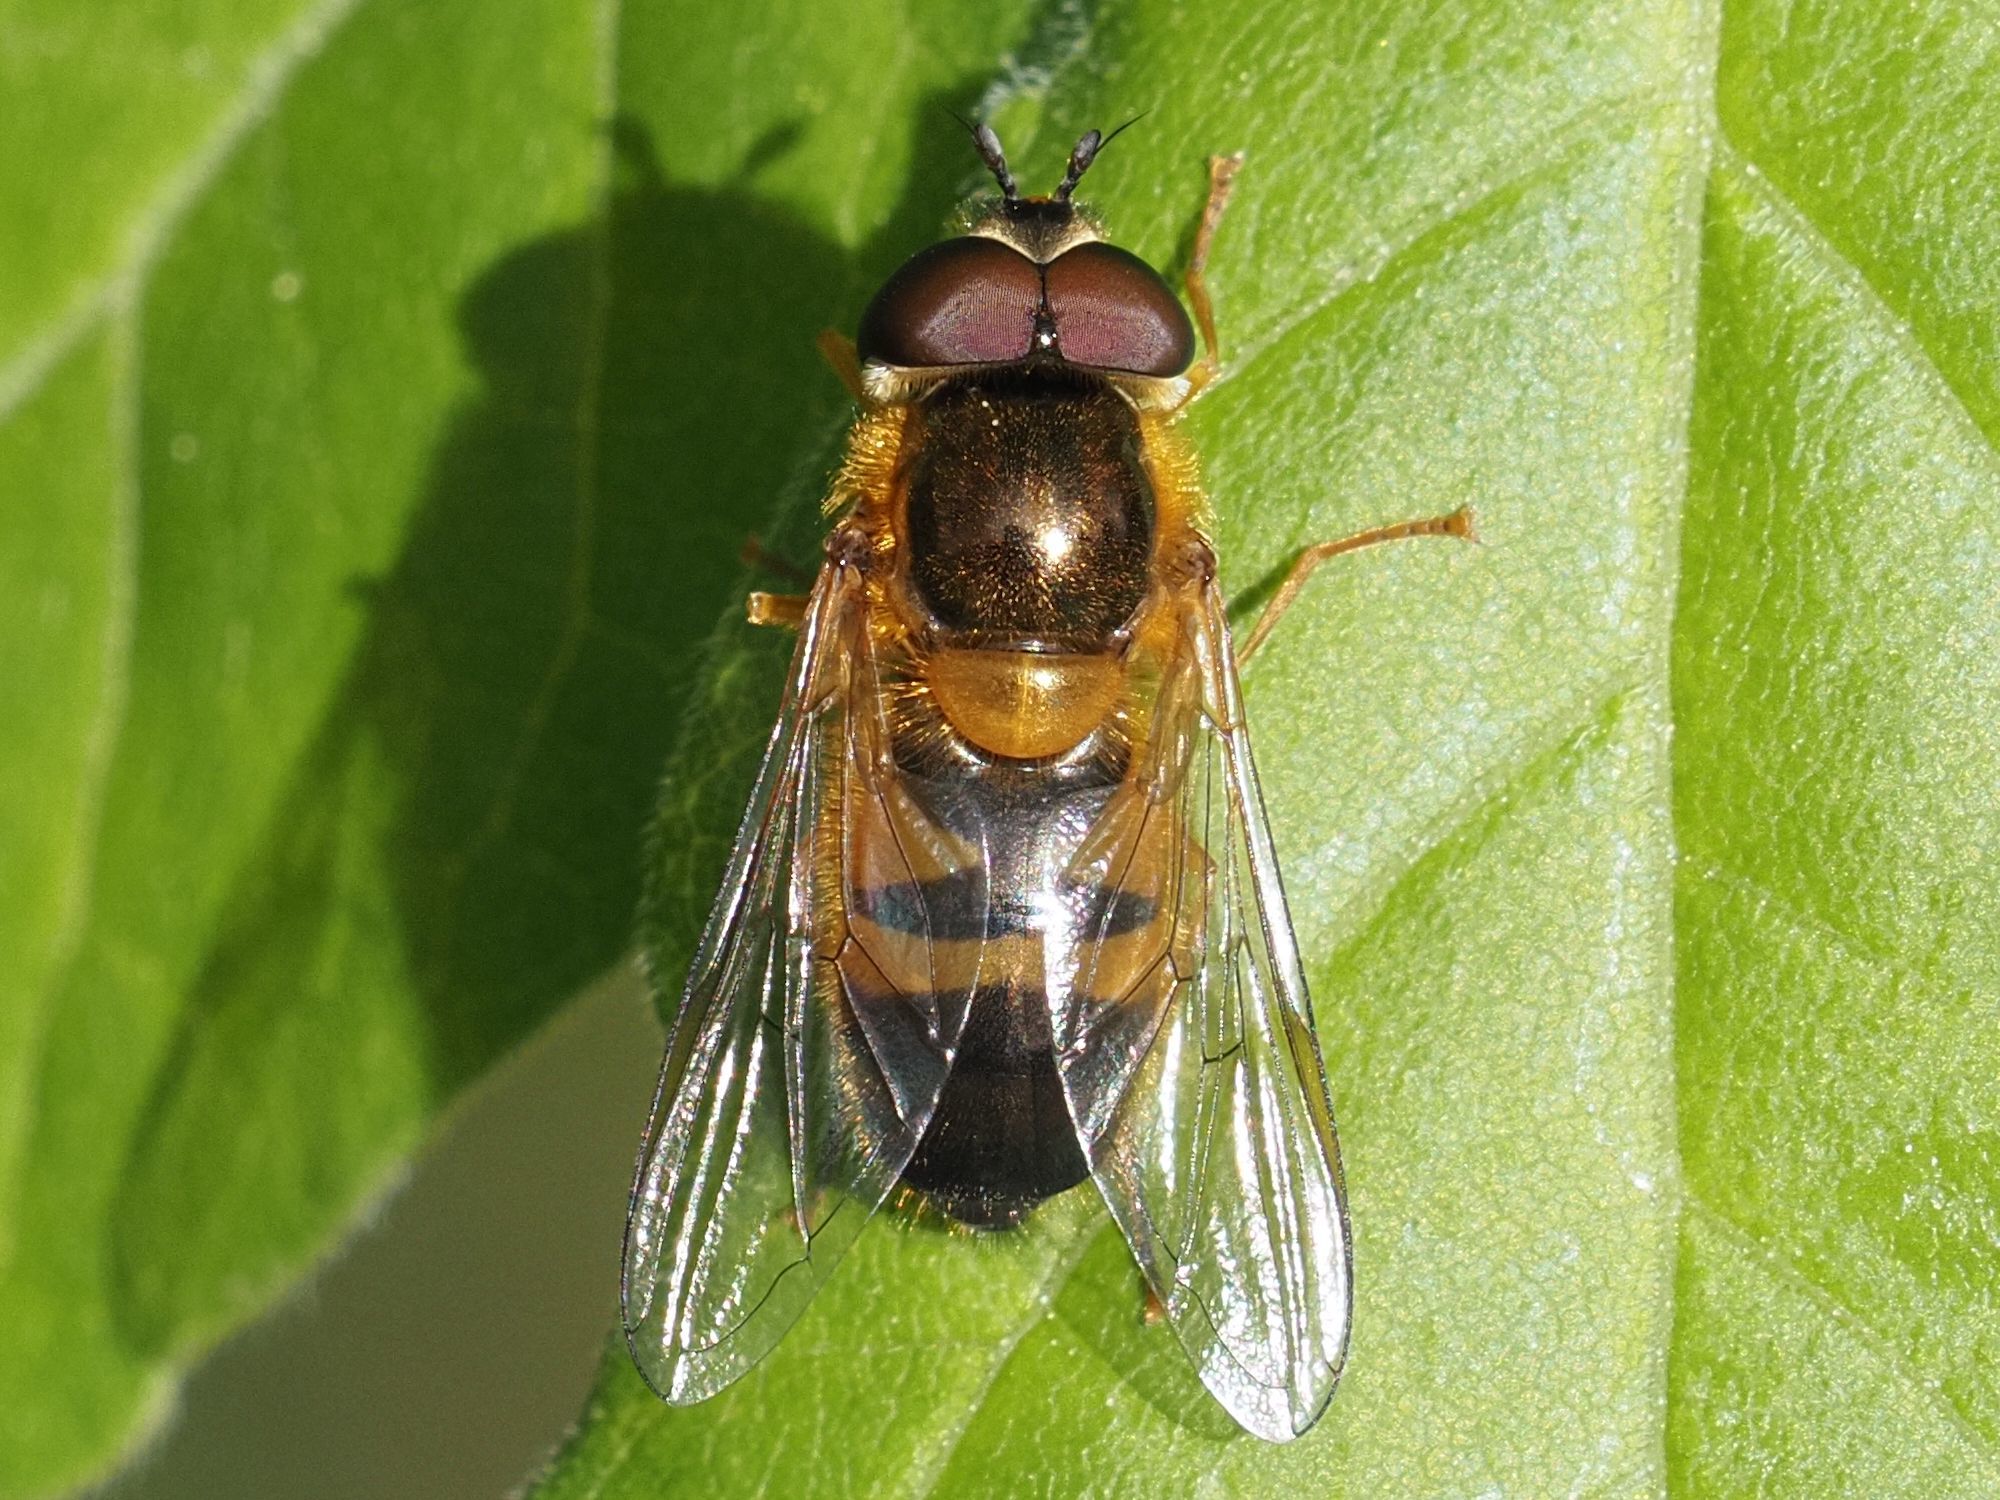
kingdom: Animalia
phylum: Arthropoda
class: Insecta
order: Diptera
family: Syrphidae
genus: Epistrophe
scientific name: Epistrophe eligans
